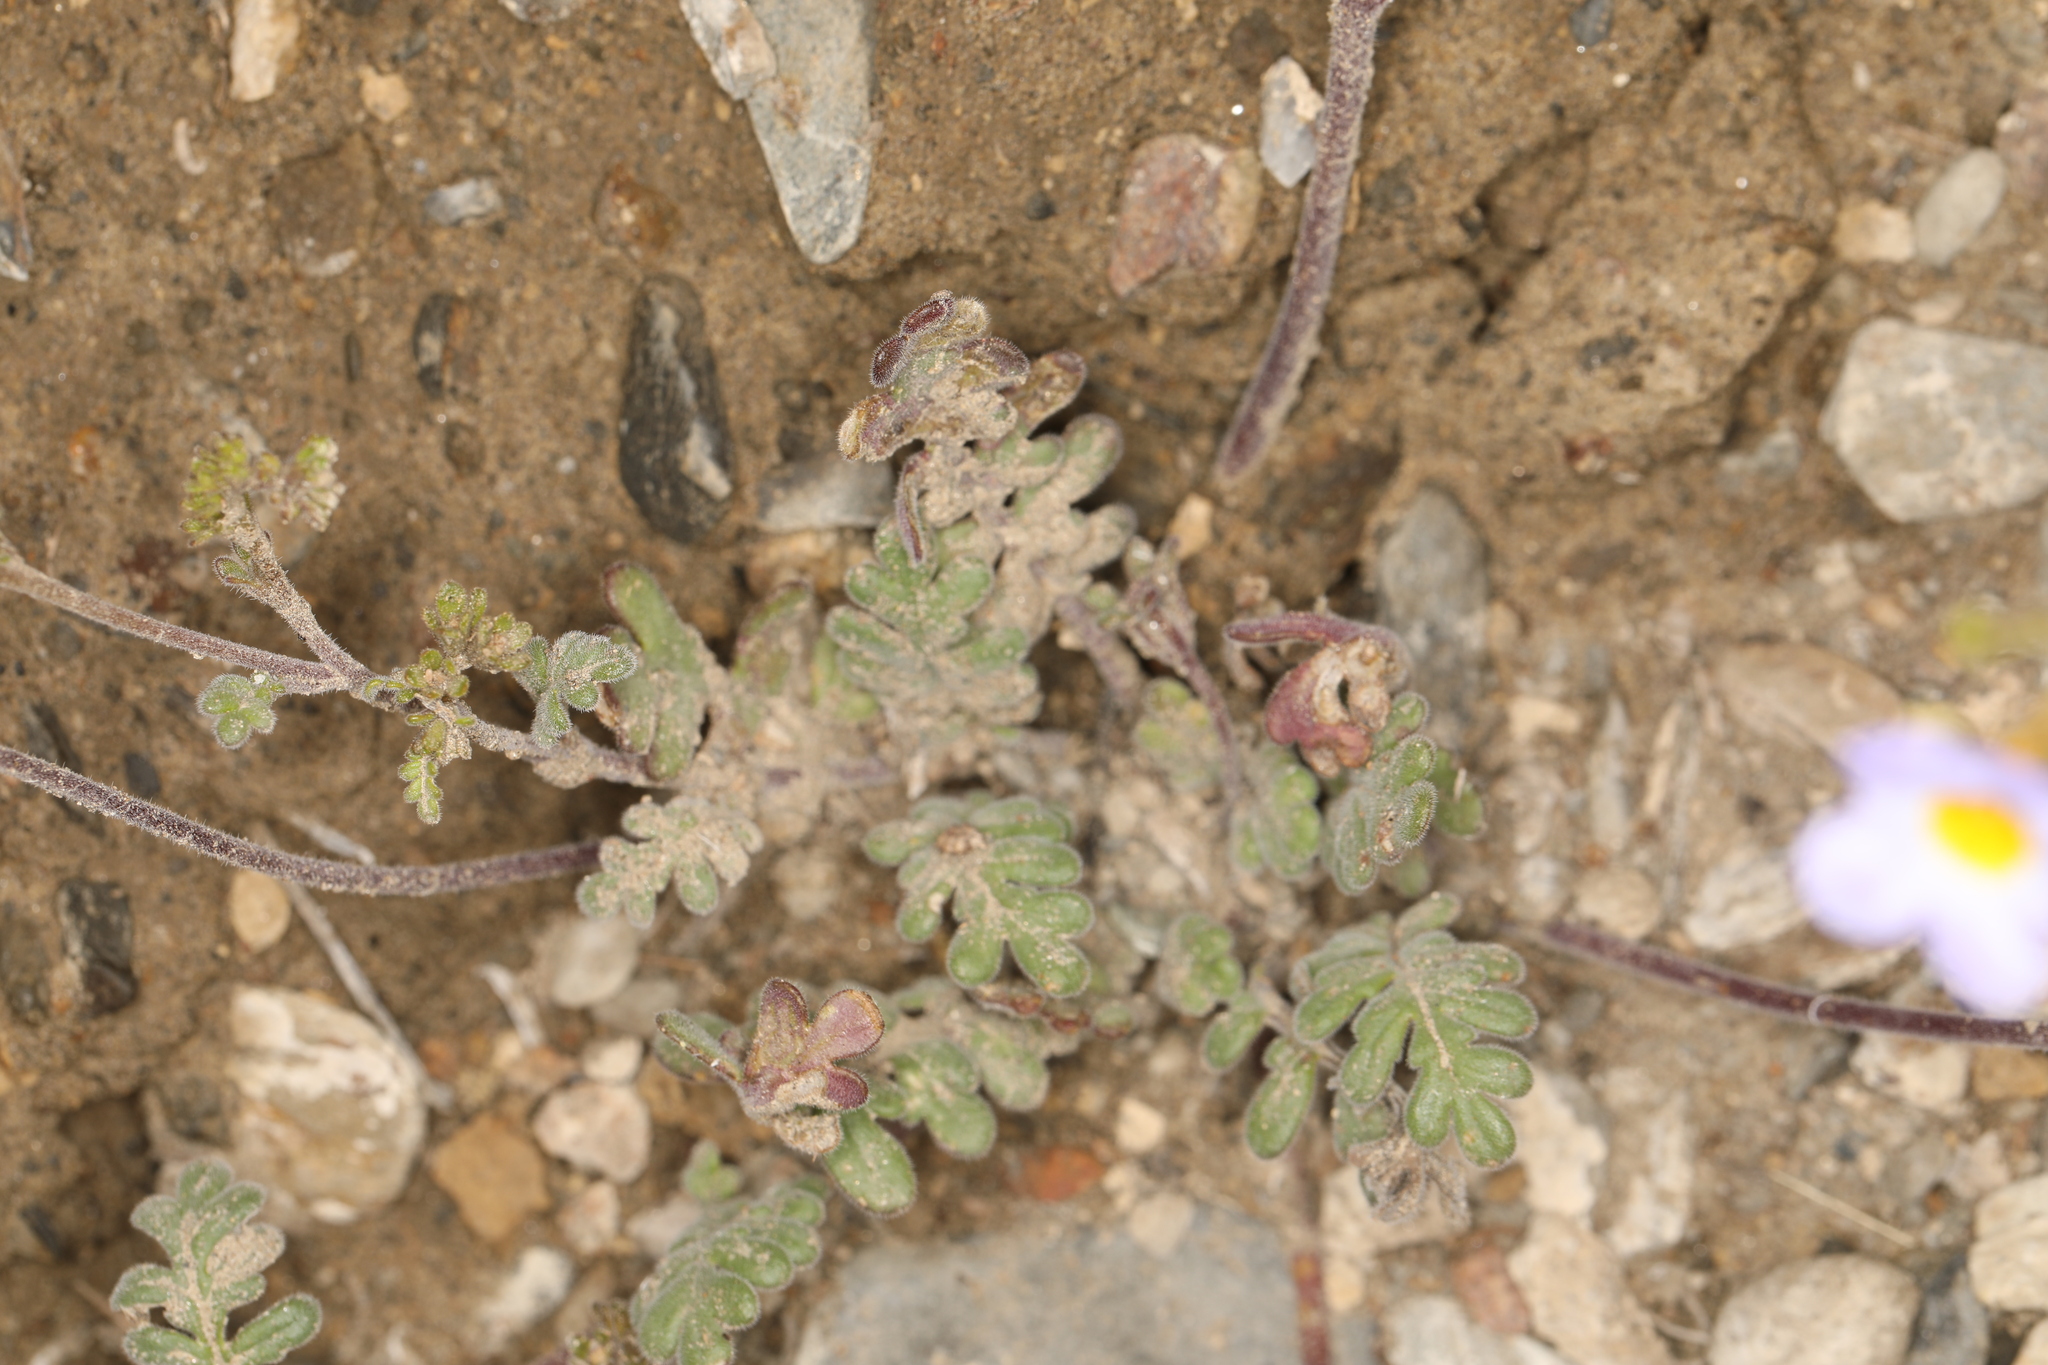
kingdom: Plantae
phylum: Tracheophyta
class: Magnoliopsida
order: Boraginales
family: Hydrophyllaceae
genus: Phacelia
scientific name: Phacelia fremontii
